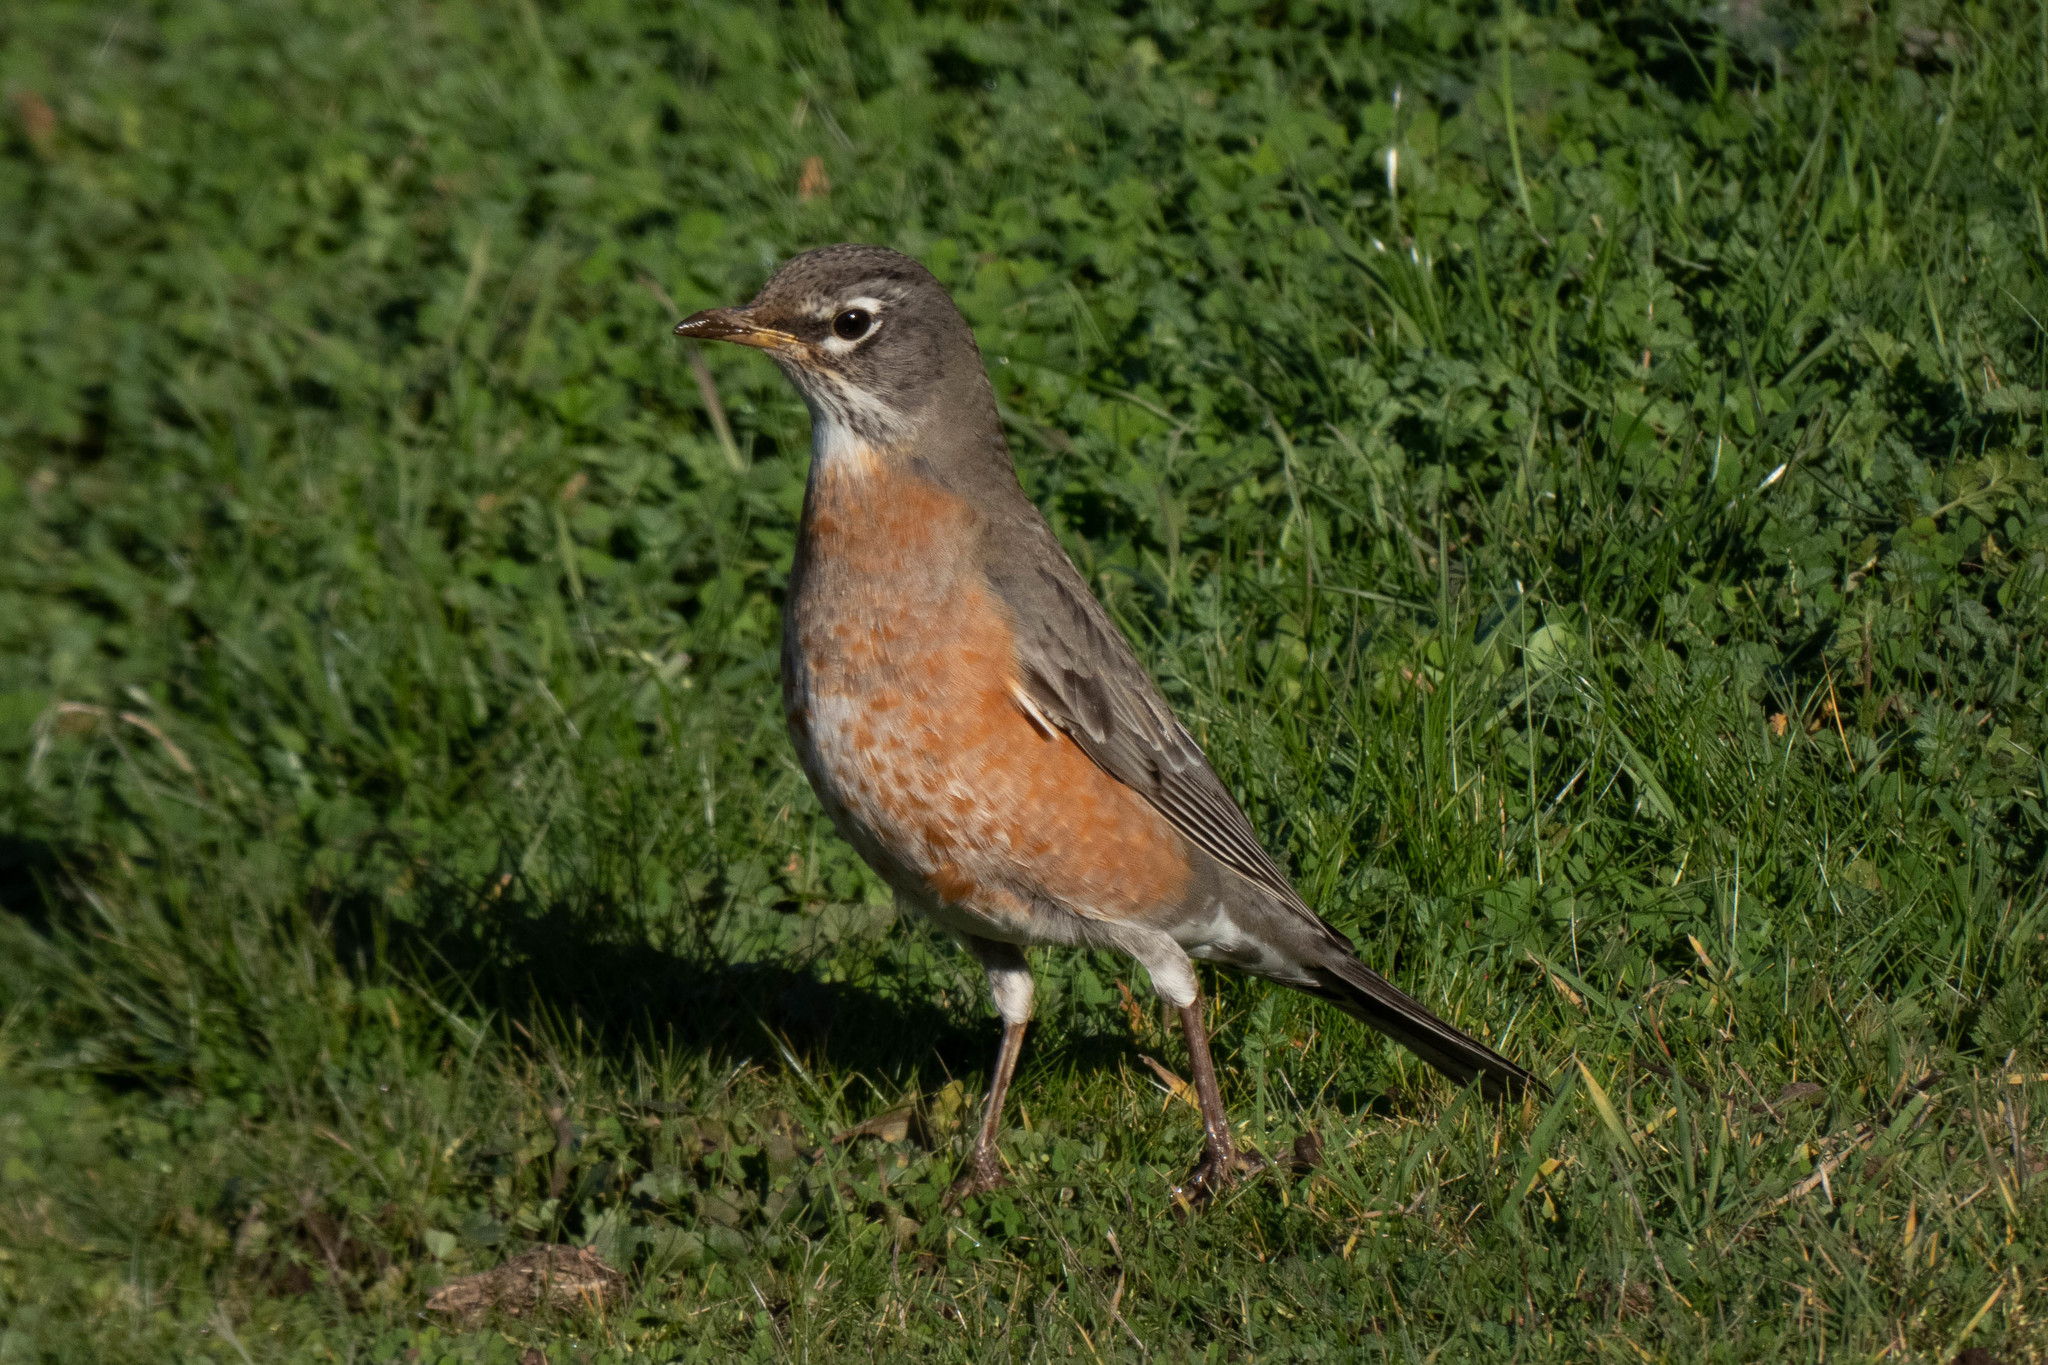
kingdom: Animalia
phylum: Chordata
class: Aves
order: Passeriformes
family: Turdidae
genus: Turdus
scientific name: Turdus migratorius
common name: American robin
